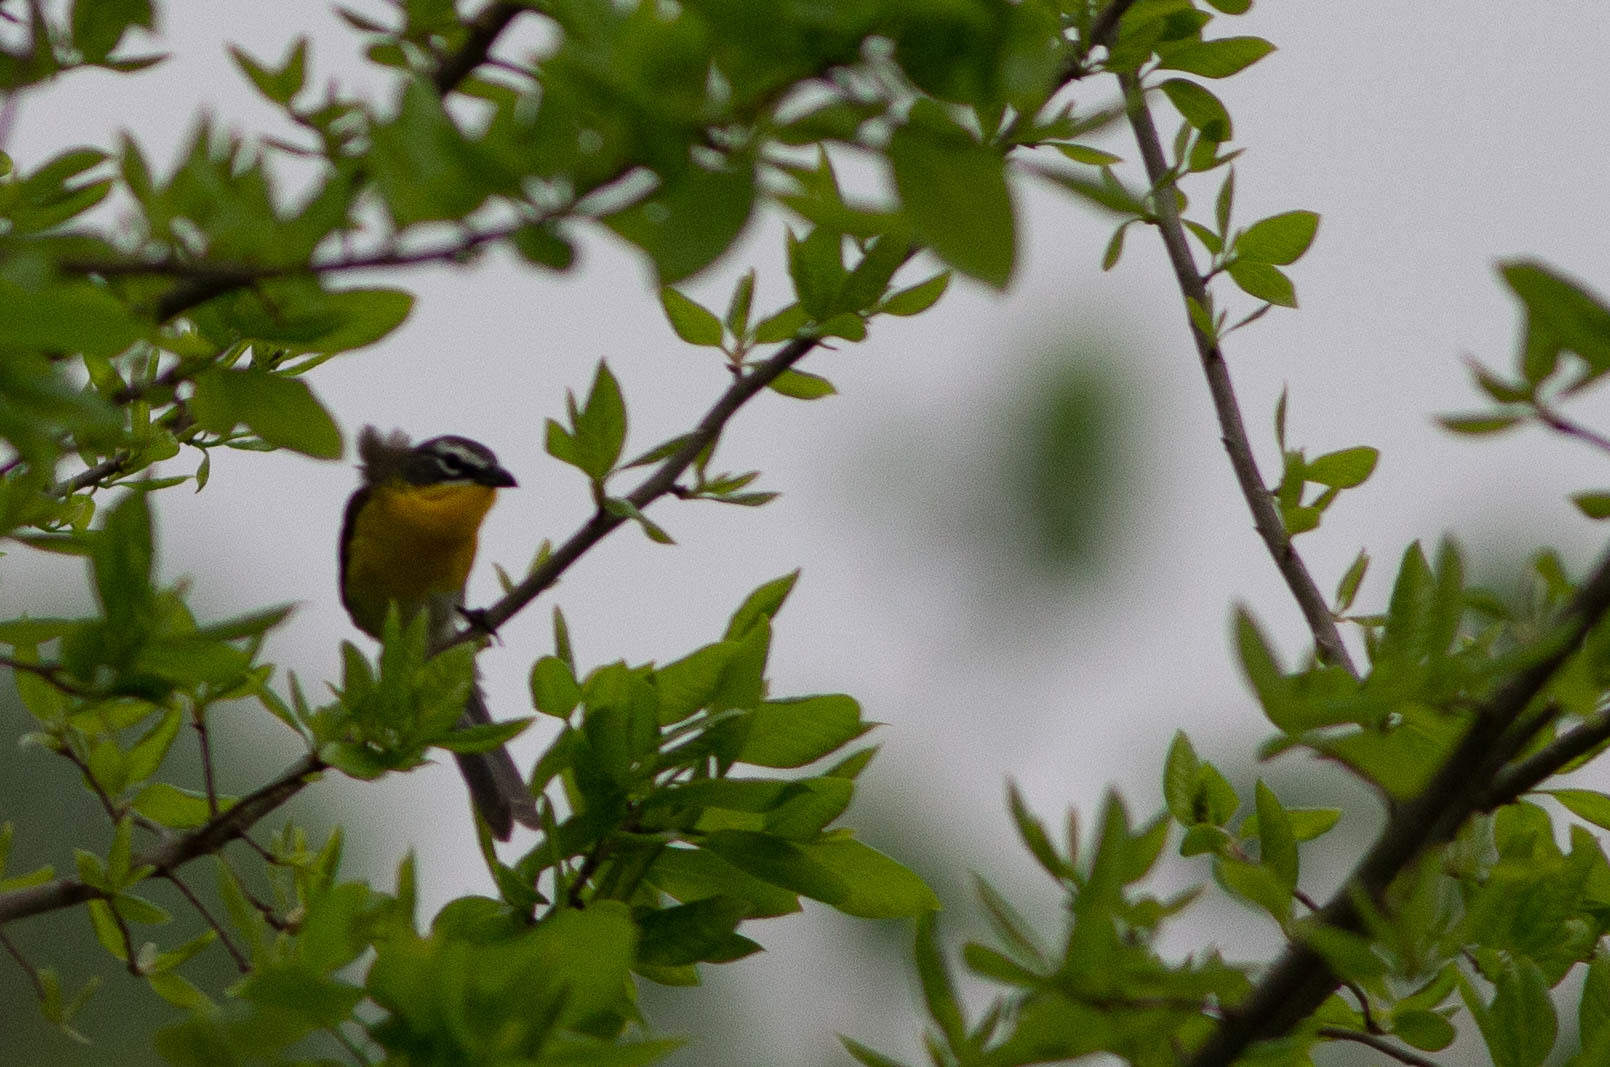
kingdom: Animalia
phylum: Chordata
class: Aves
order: Passeriformes
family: Parulidae
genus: Icteria
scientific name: Icteria virens
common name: Yellow-breasted chat
